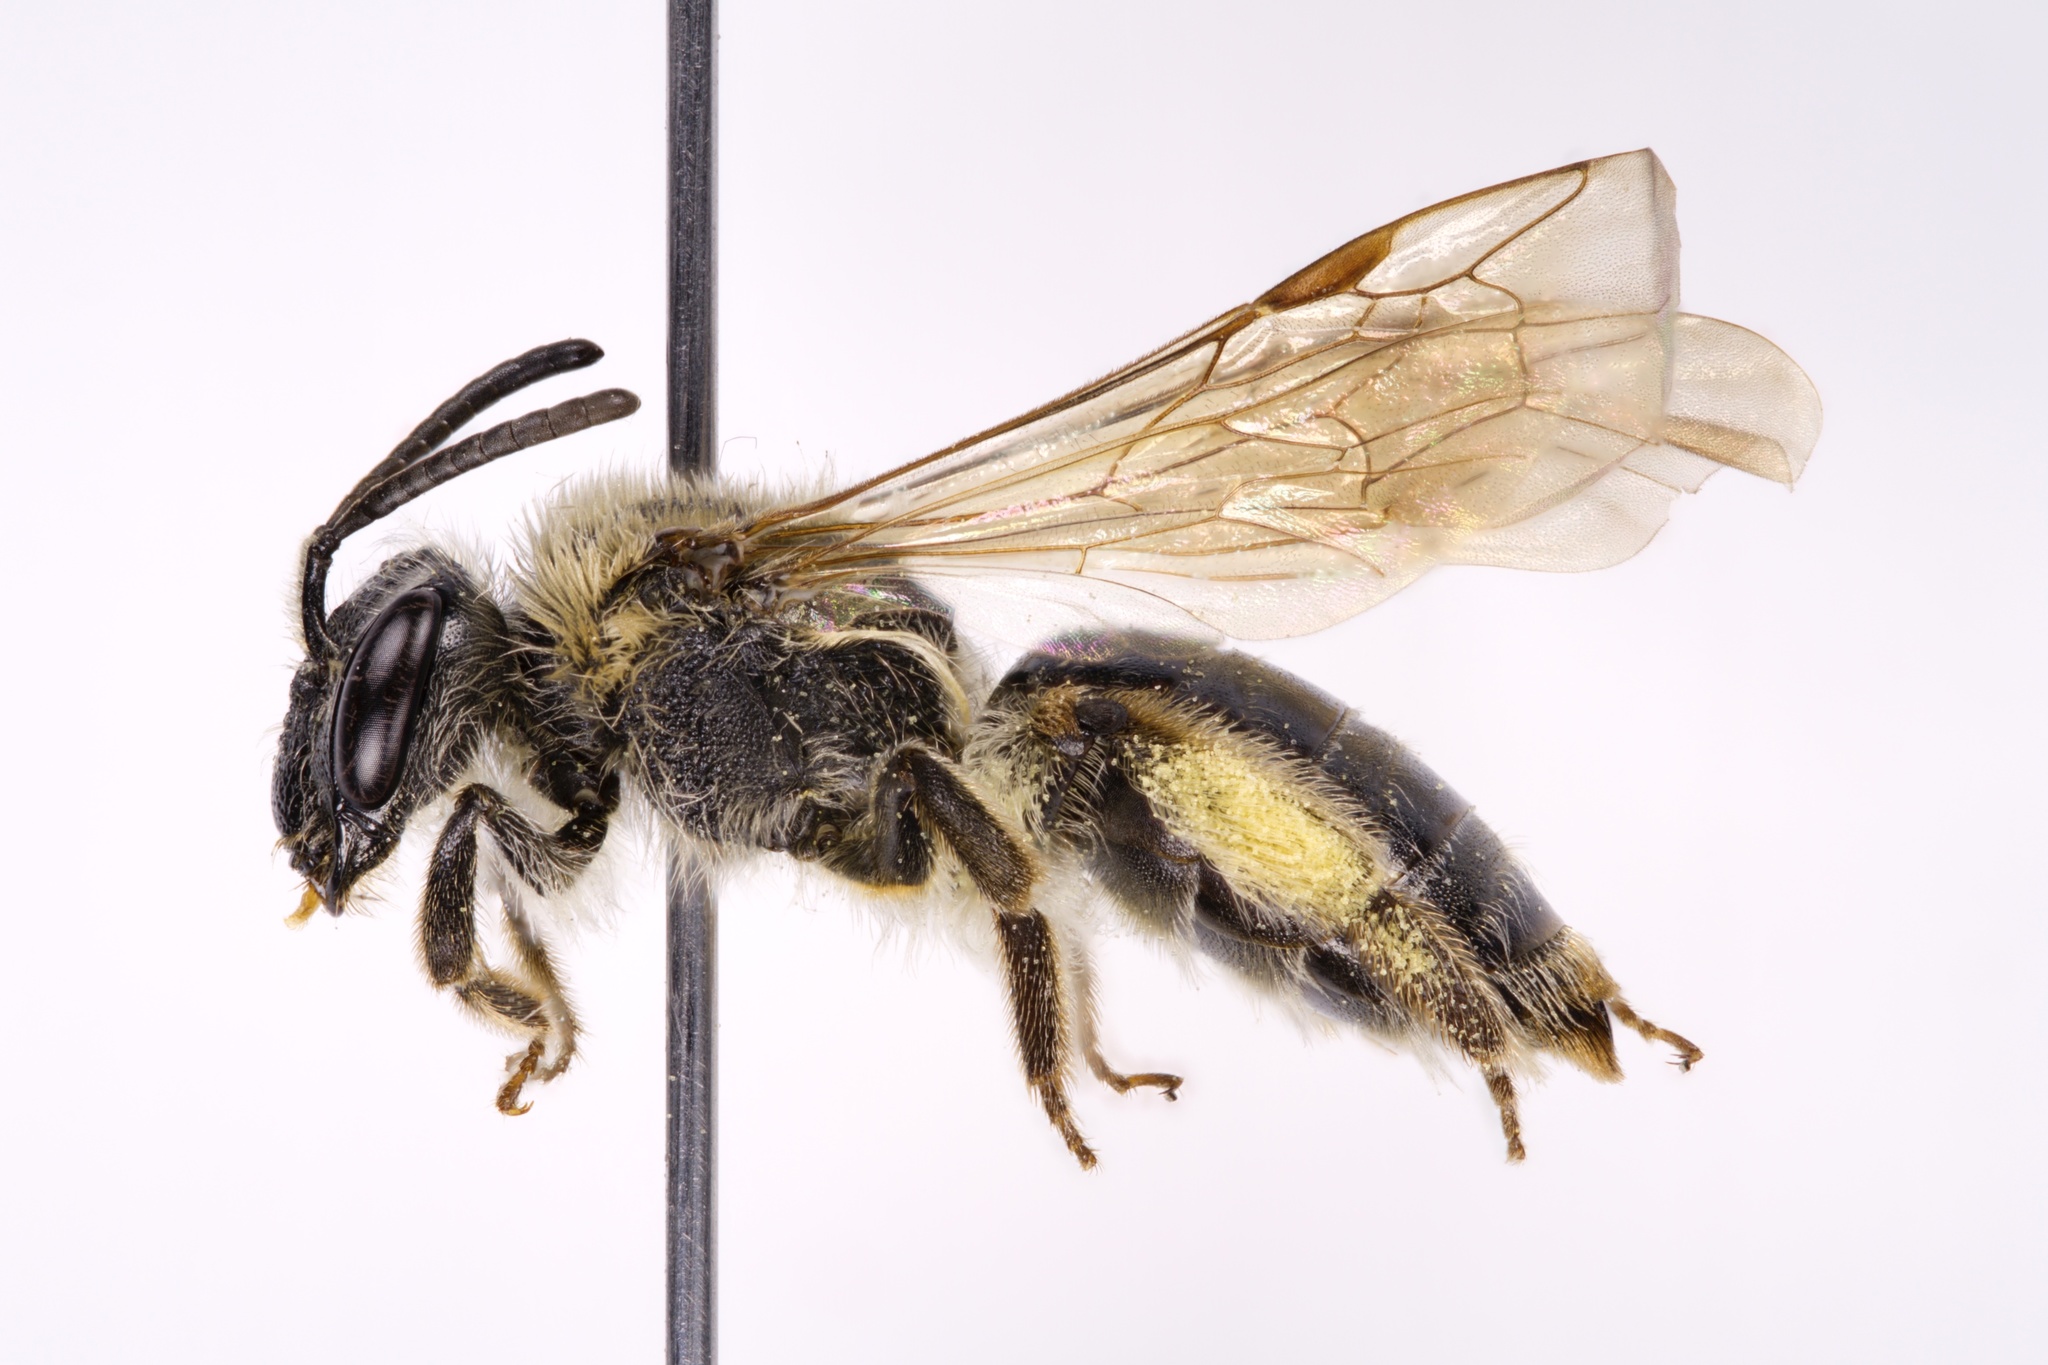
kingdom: Animalia
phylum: Arthropoda
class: Insecta
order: Hymenoptera
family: Andrenidae
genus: Andrena
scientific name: Andrena rugosa
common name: Rugose mining bee
